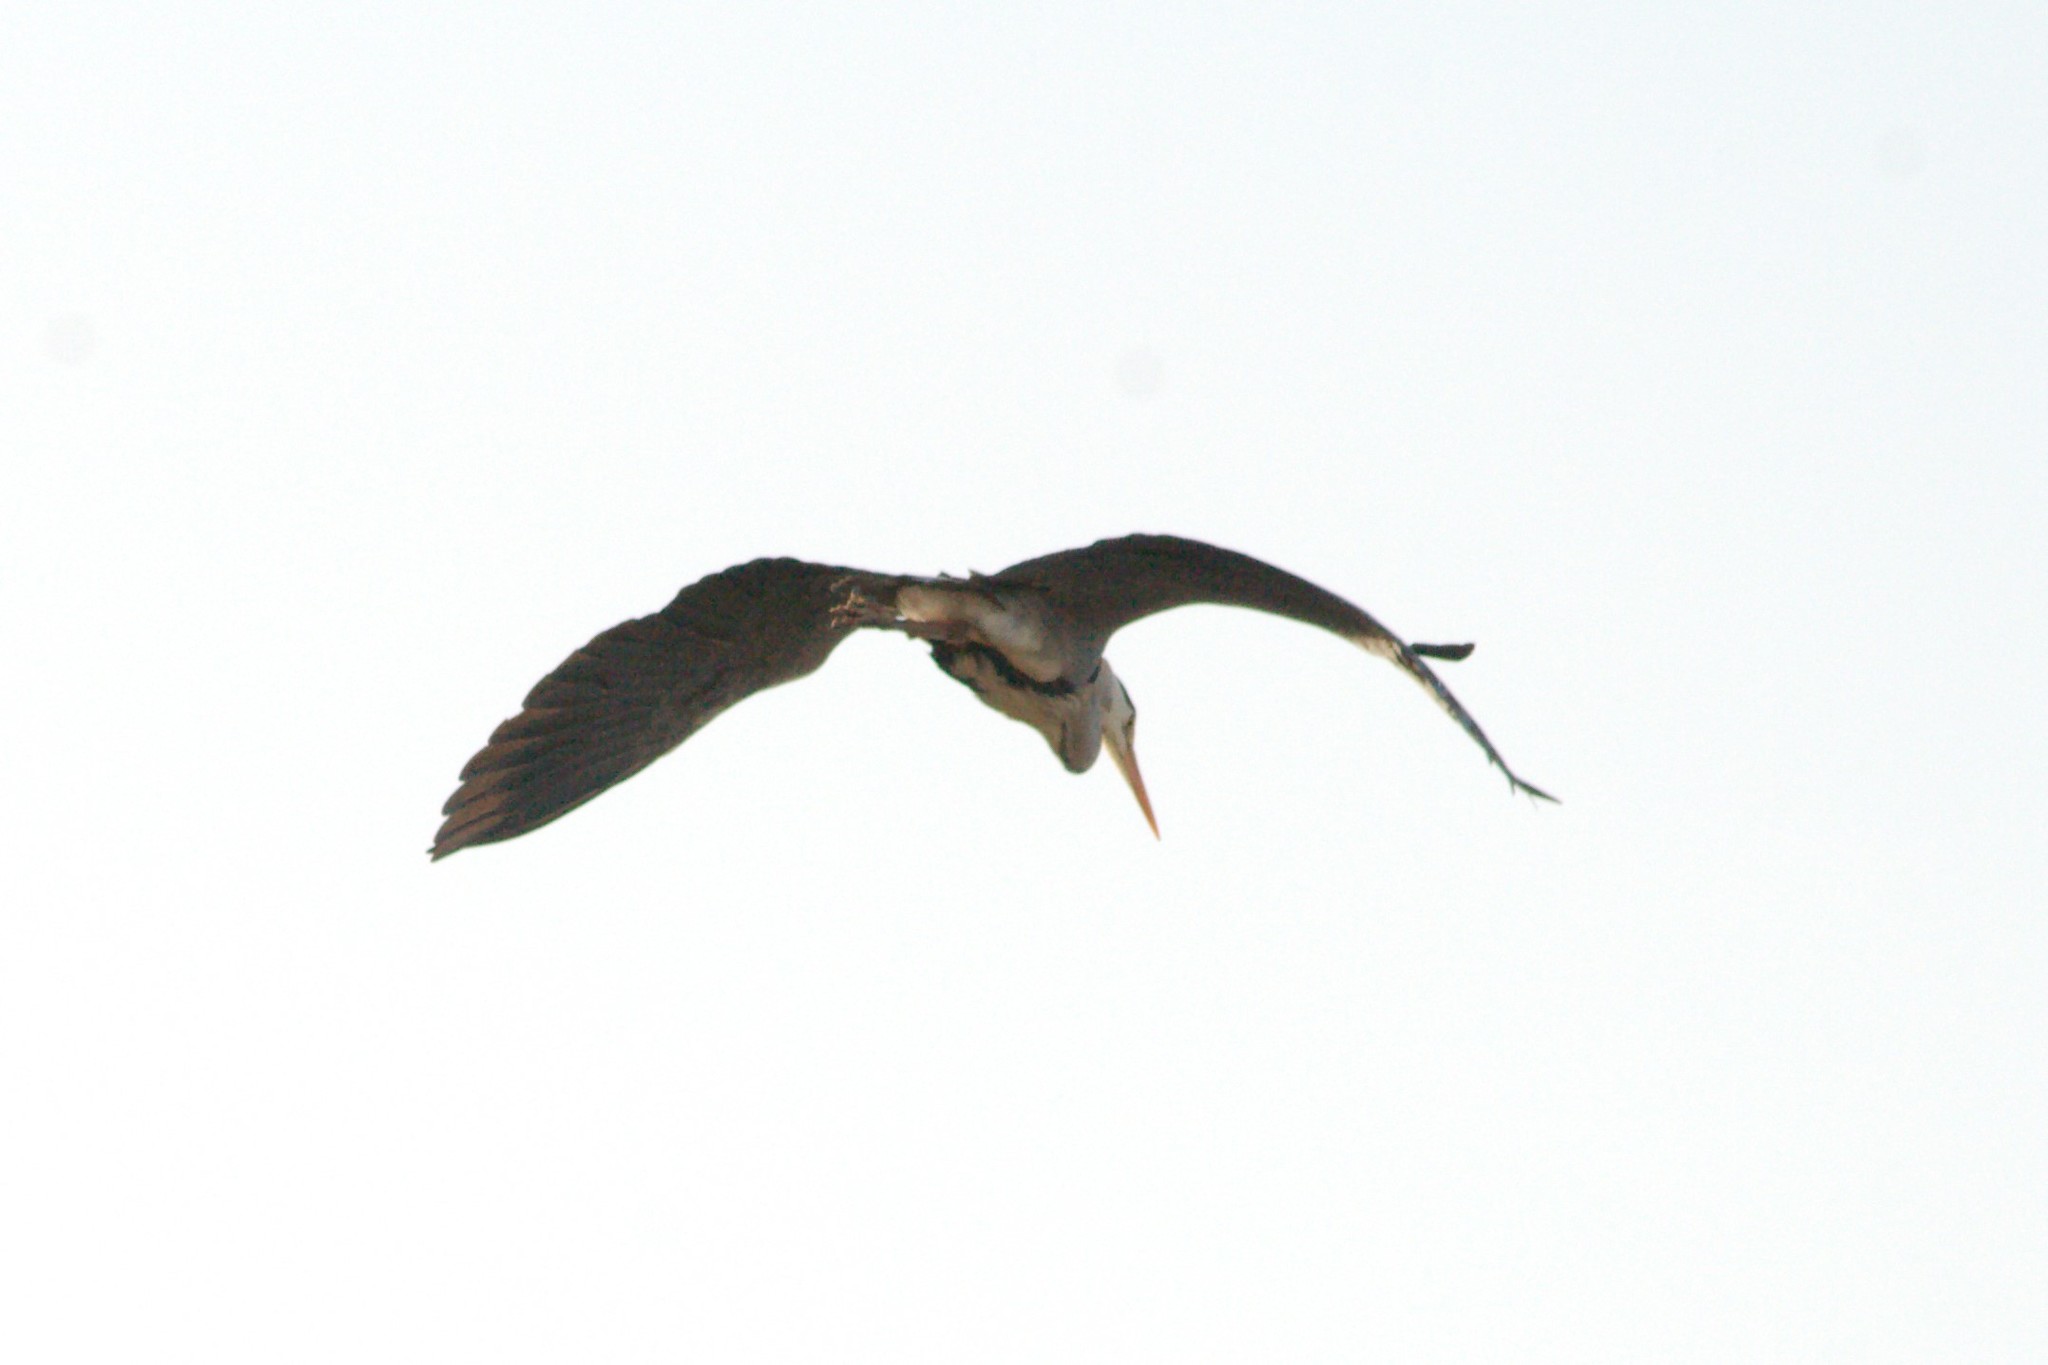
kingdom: Animalia
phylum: Chordata
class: Aves
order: Pelecaniformes
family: Ardeidae
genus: Ardea
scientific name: Ardea cinerea
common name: Grey heron
